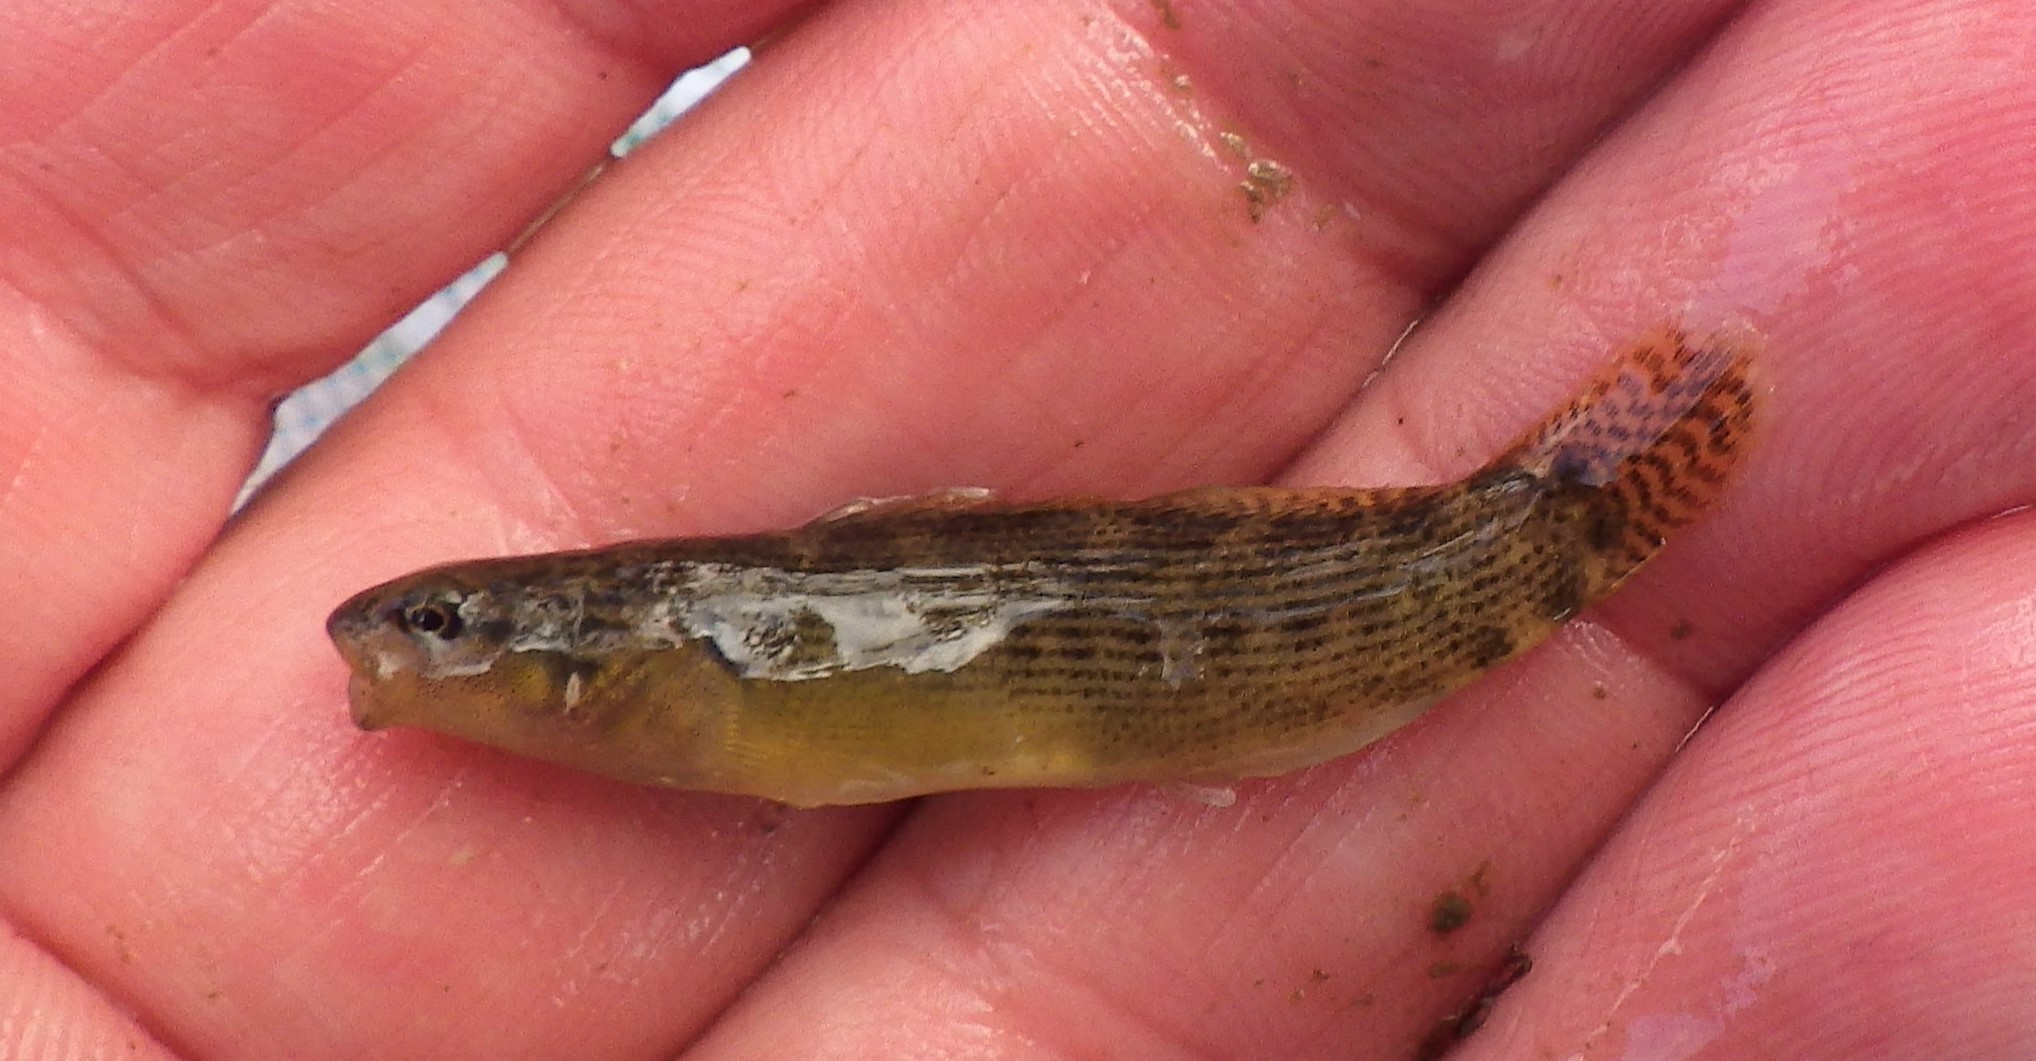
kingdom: Animalia
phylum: Chordata
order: Perciformes
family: Percidae
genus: Etheostoma
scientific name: Etheostoma flabellare
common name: Fantail darter
